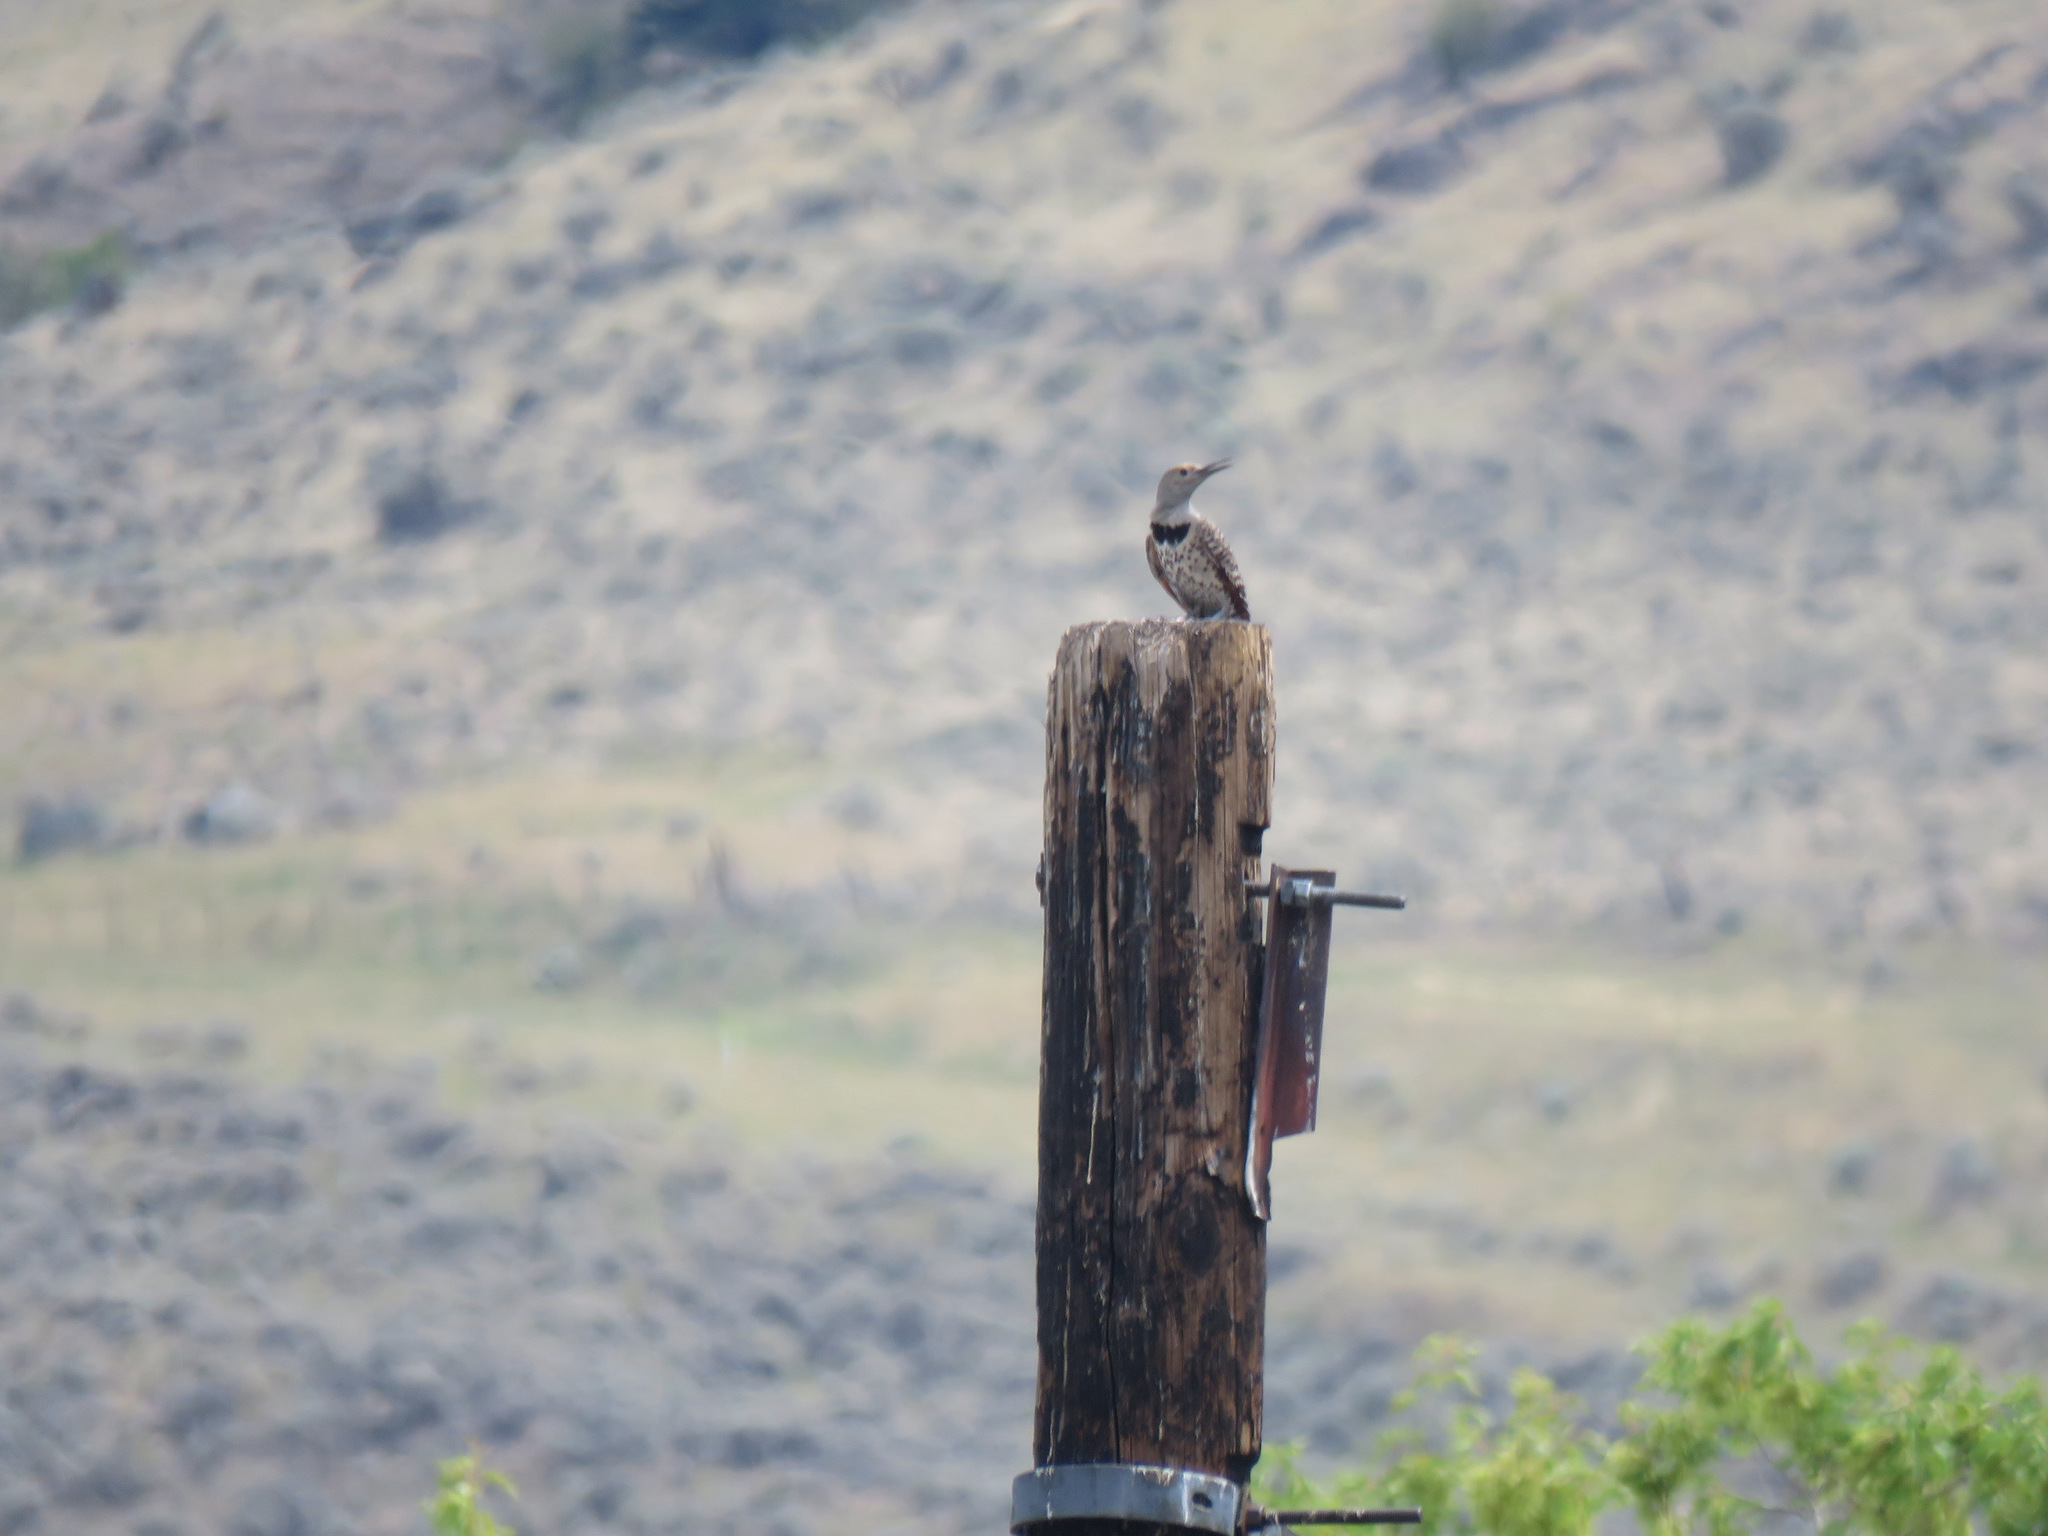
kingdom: Animalia
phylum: Chordata
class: Aves
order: Piciformes
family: Picidae
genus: Colaptes
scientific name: Colaptes auratus
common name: Northern flicker
